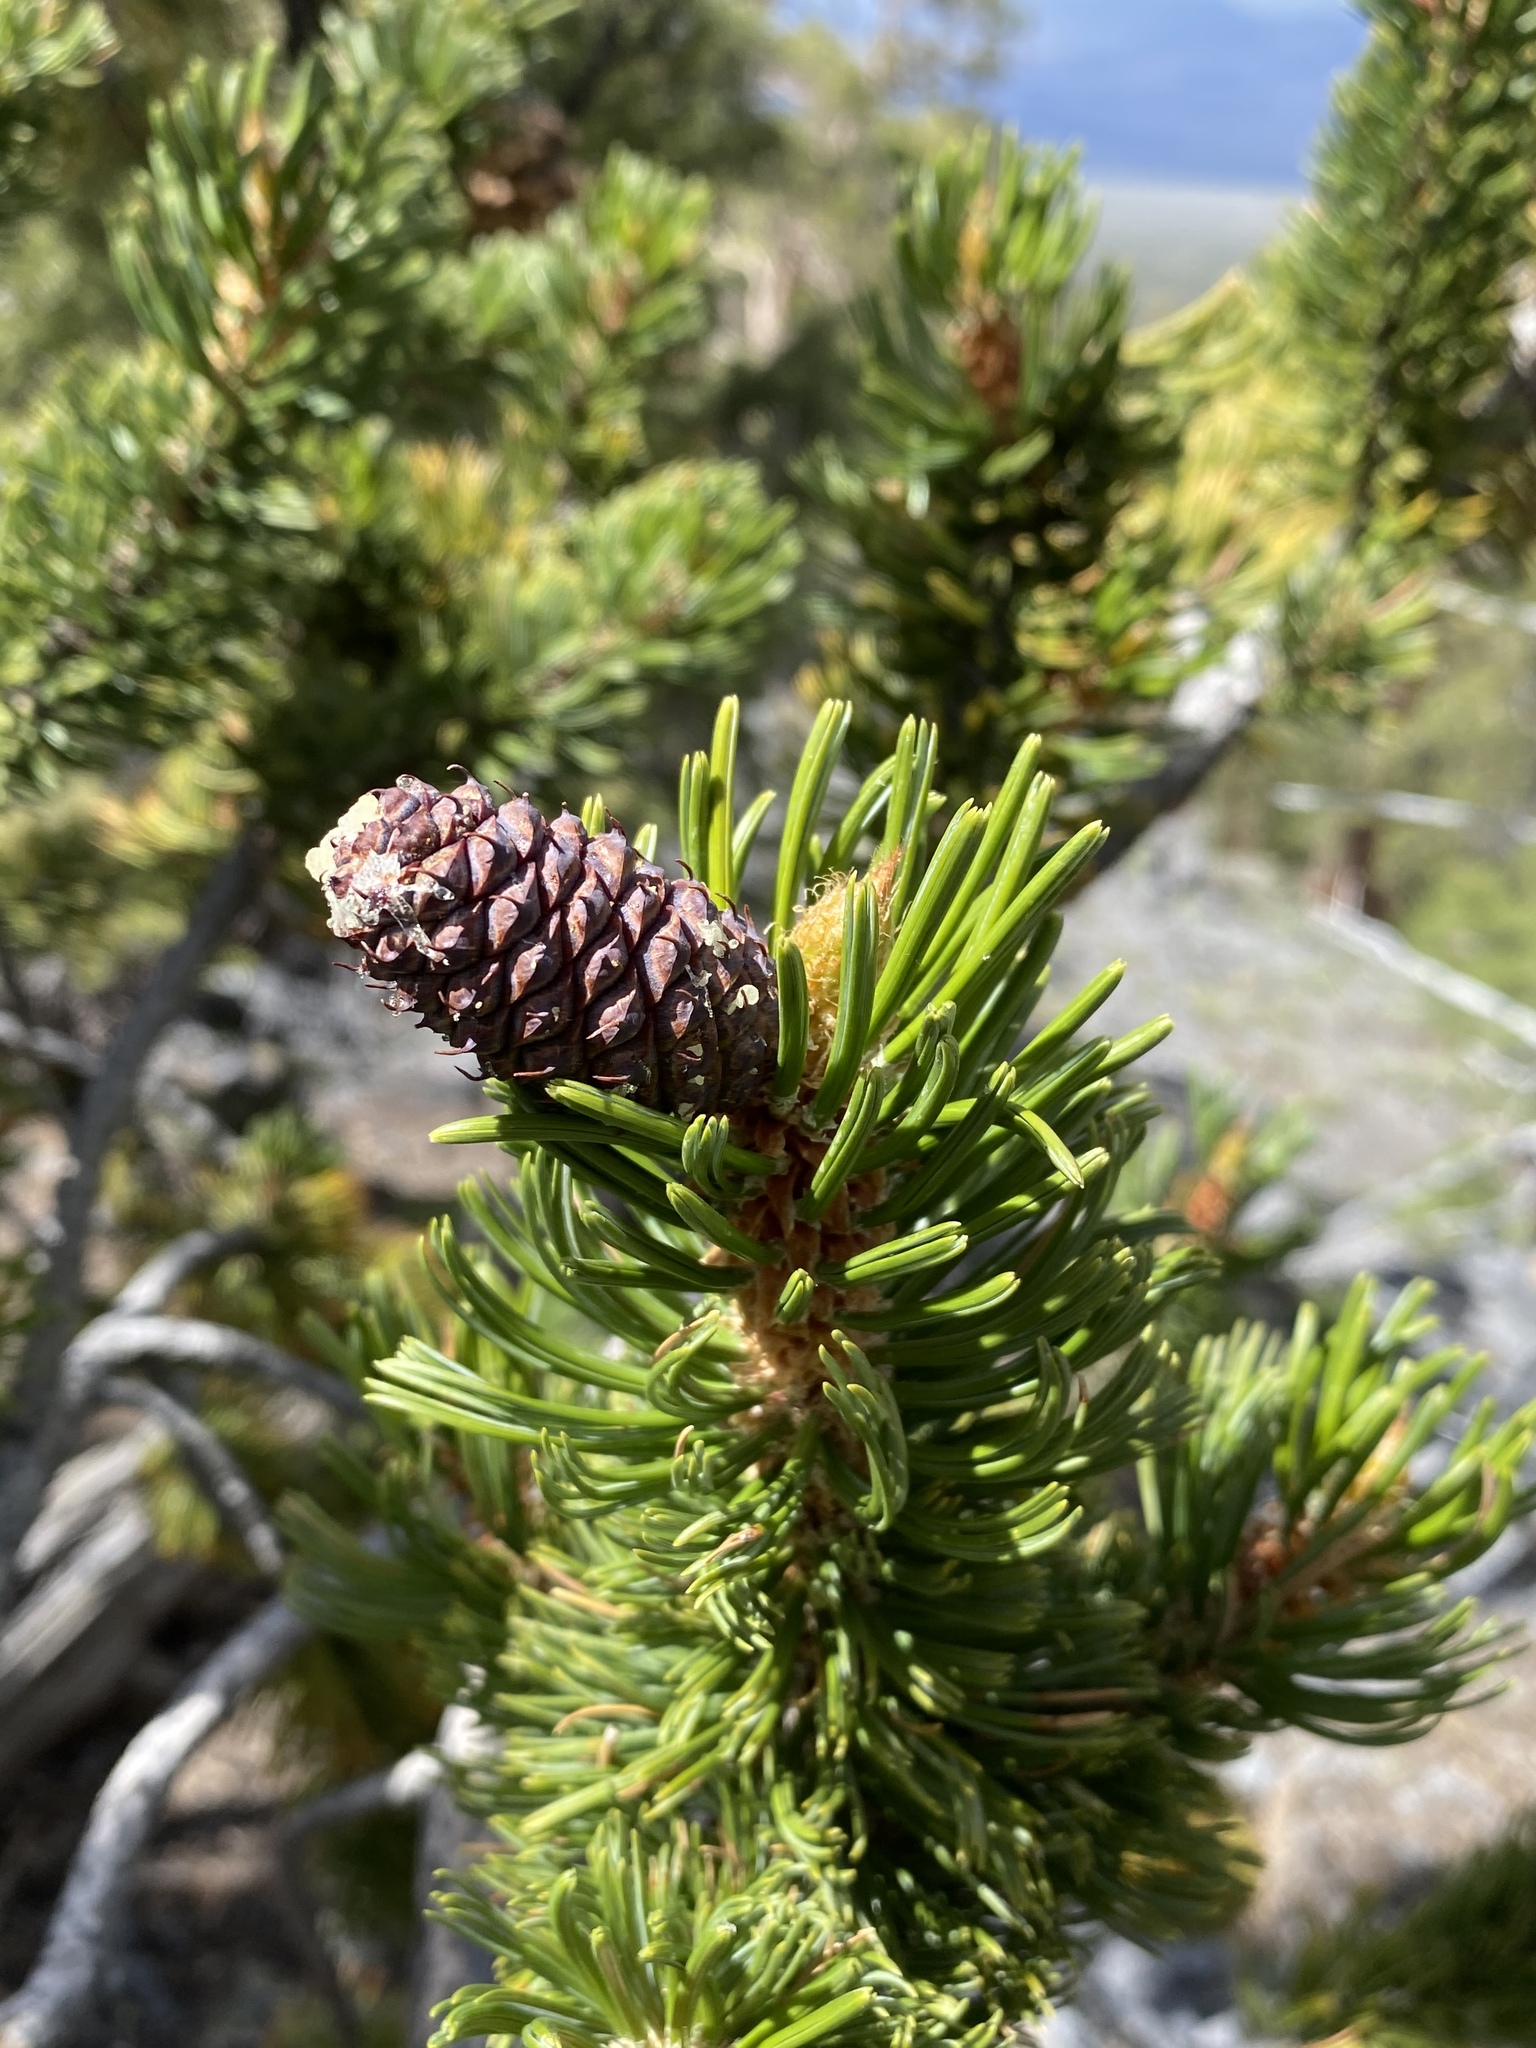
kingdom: Plantae
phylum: Tracheophyta
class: Pinopsida
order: Pinales
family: Pinaceae
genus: Pinus
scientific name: Pinus longaeva
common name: Intermountain bristlecone pine
